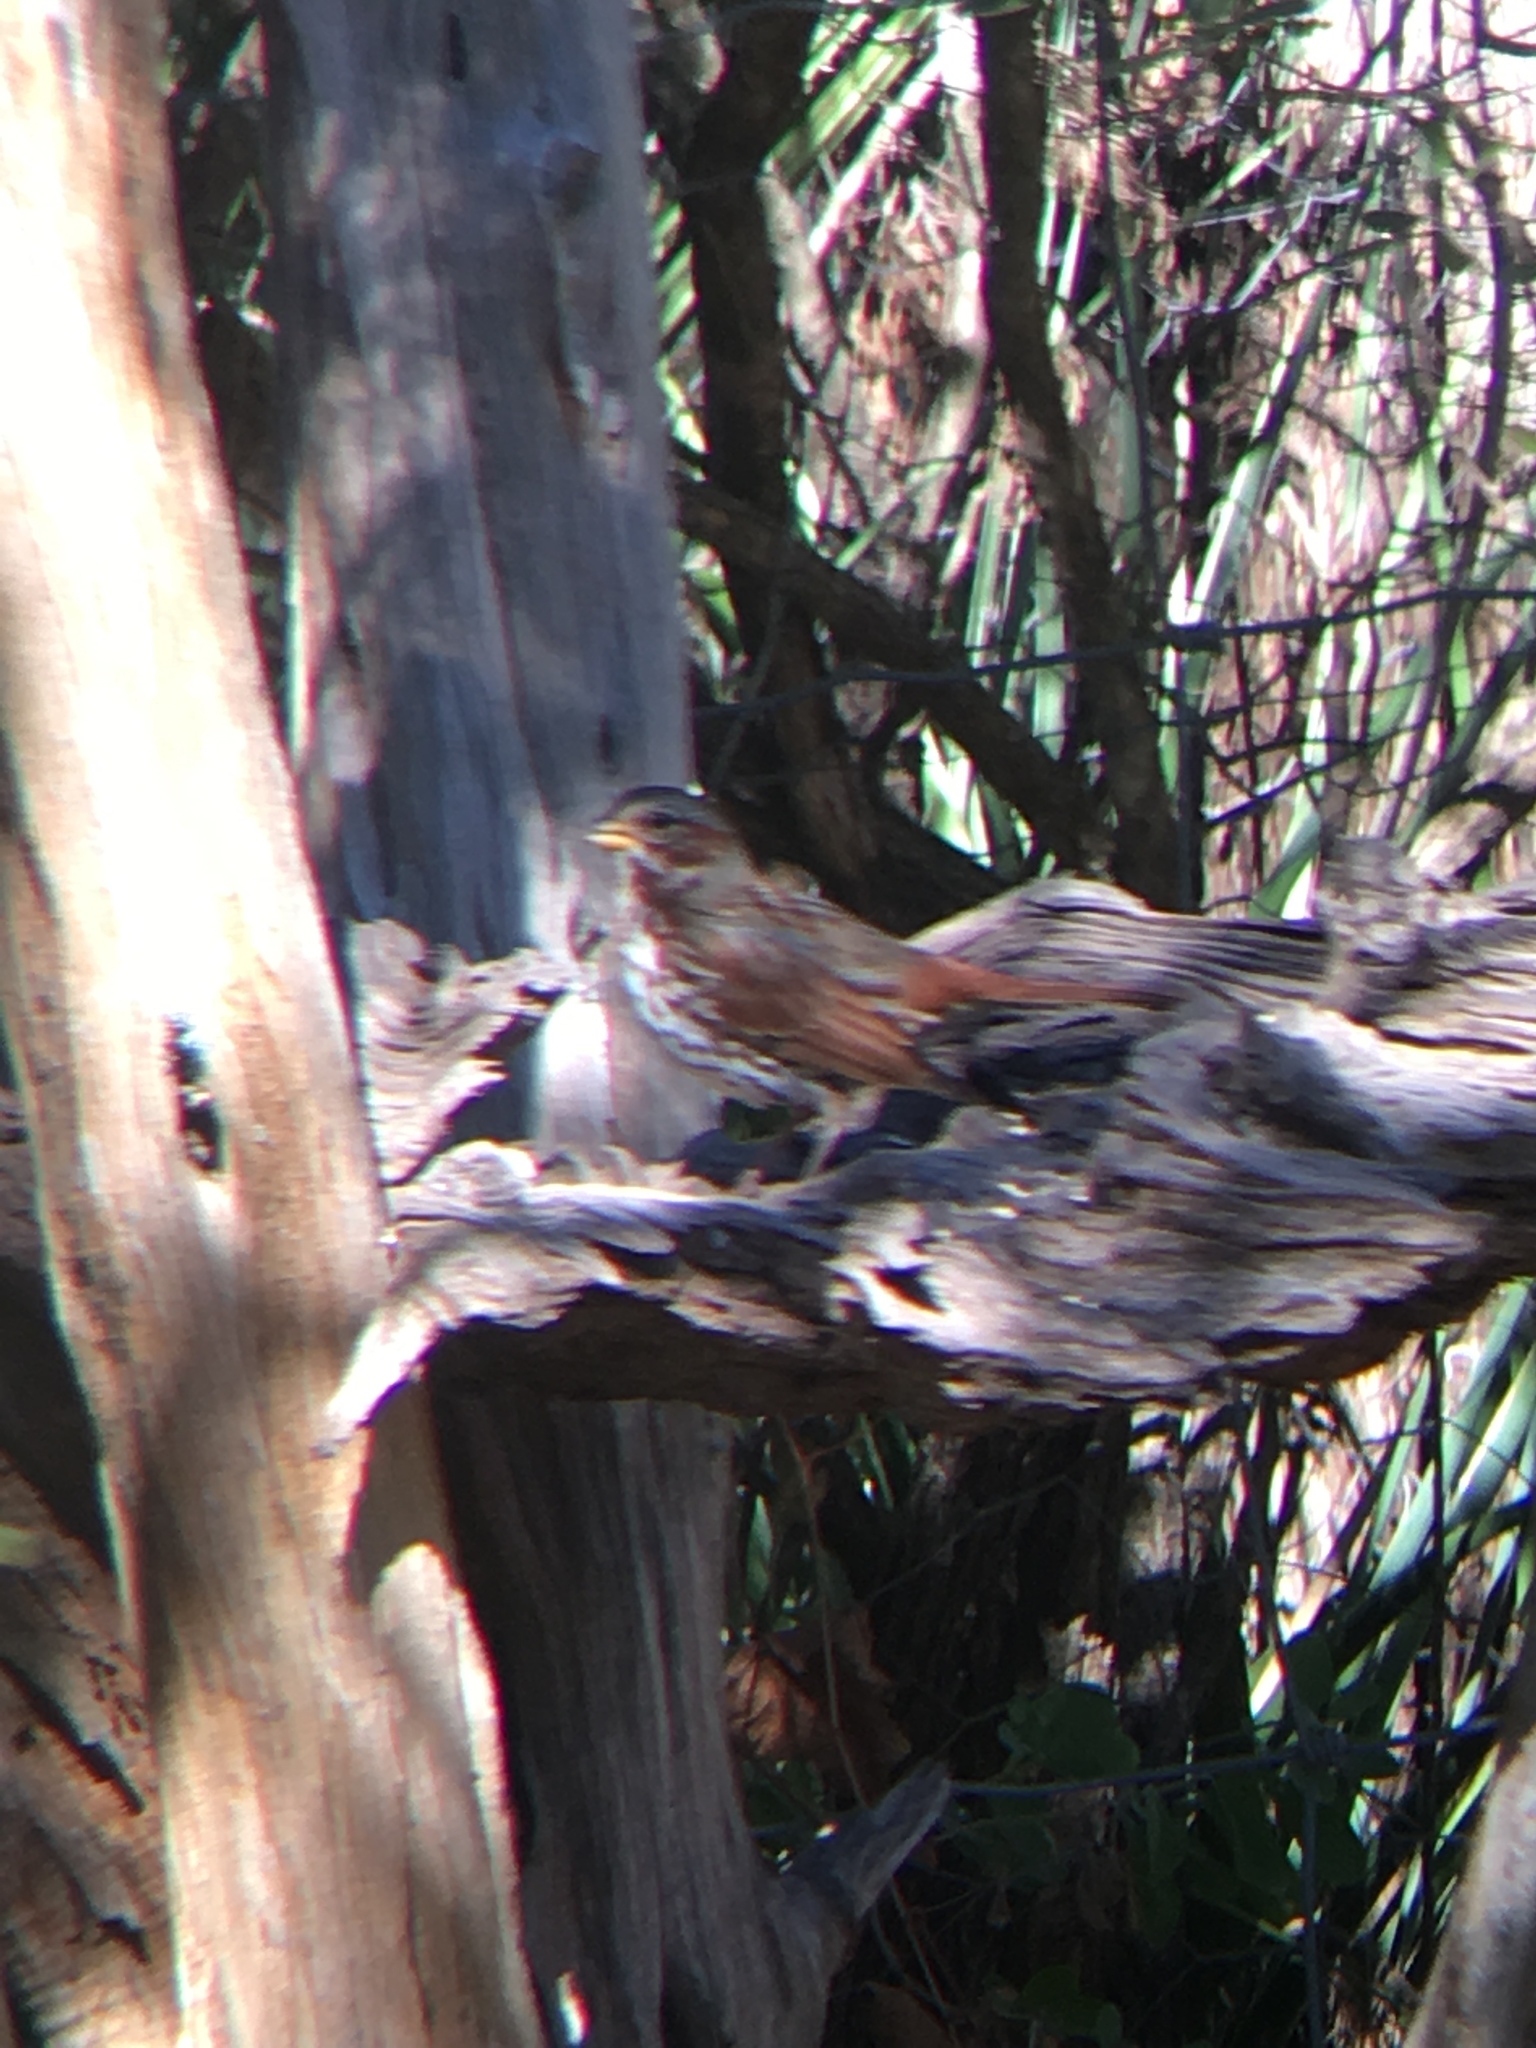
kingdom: Animalia
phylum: Chordata
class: Aves
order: Passeriformes
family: Passerellidae
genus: Passerella
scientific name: Passerella iliaca
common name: Fox sparrow
